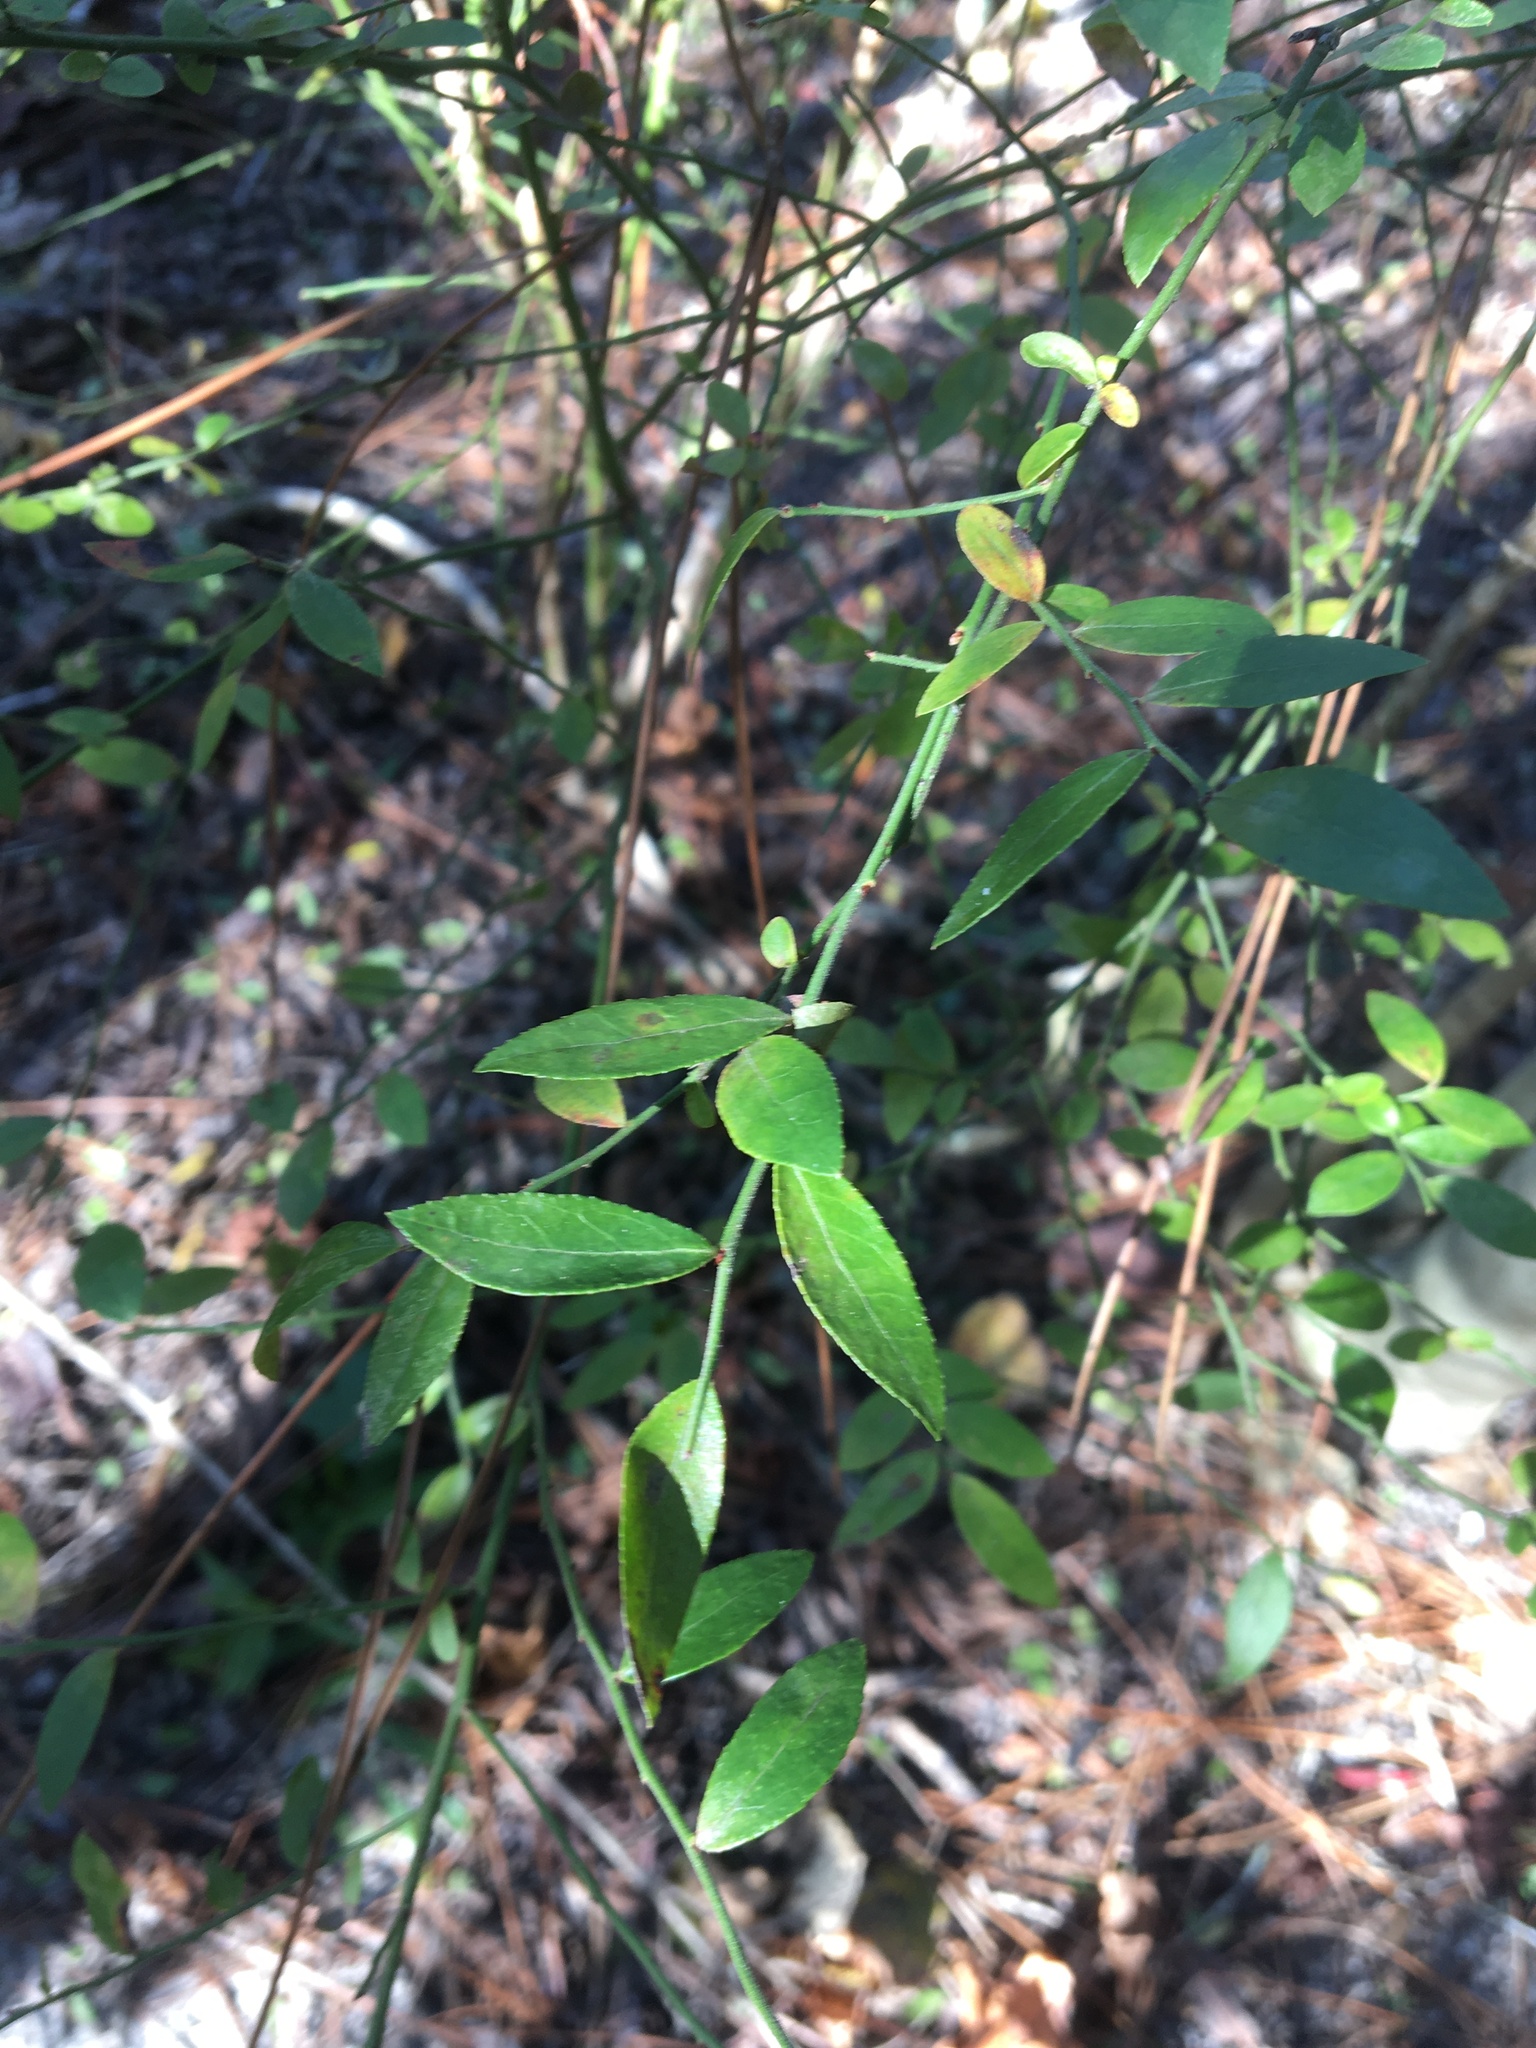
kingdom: Plantae
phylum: Tracheophyta
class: Magnoliopsida
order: Ericales
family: Ericaceae
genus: Vaccinium
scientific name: Vaccinium corymbosum
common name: Blueberry
